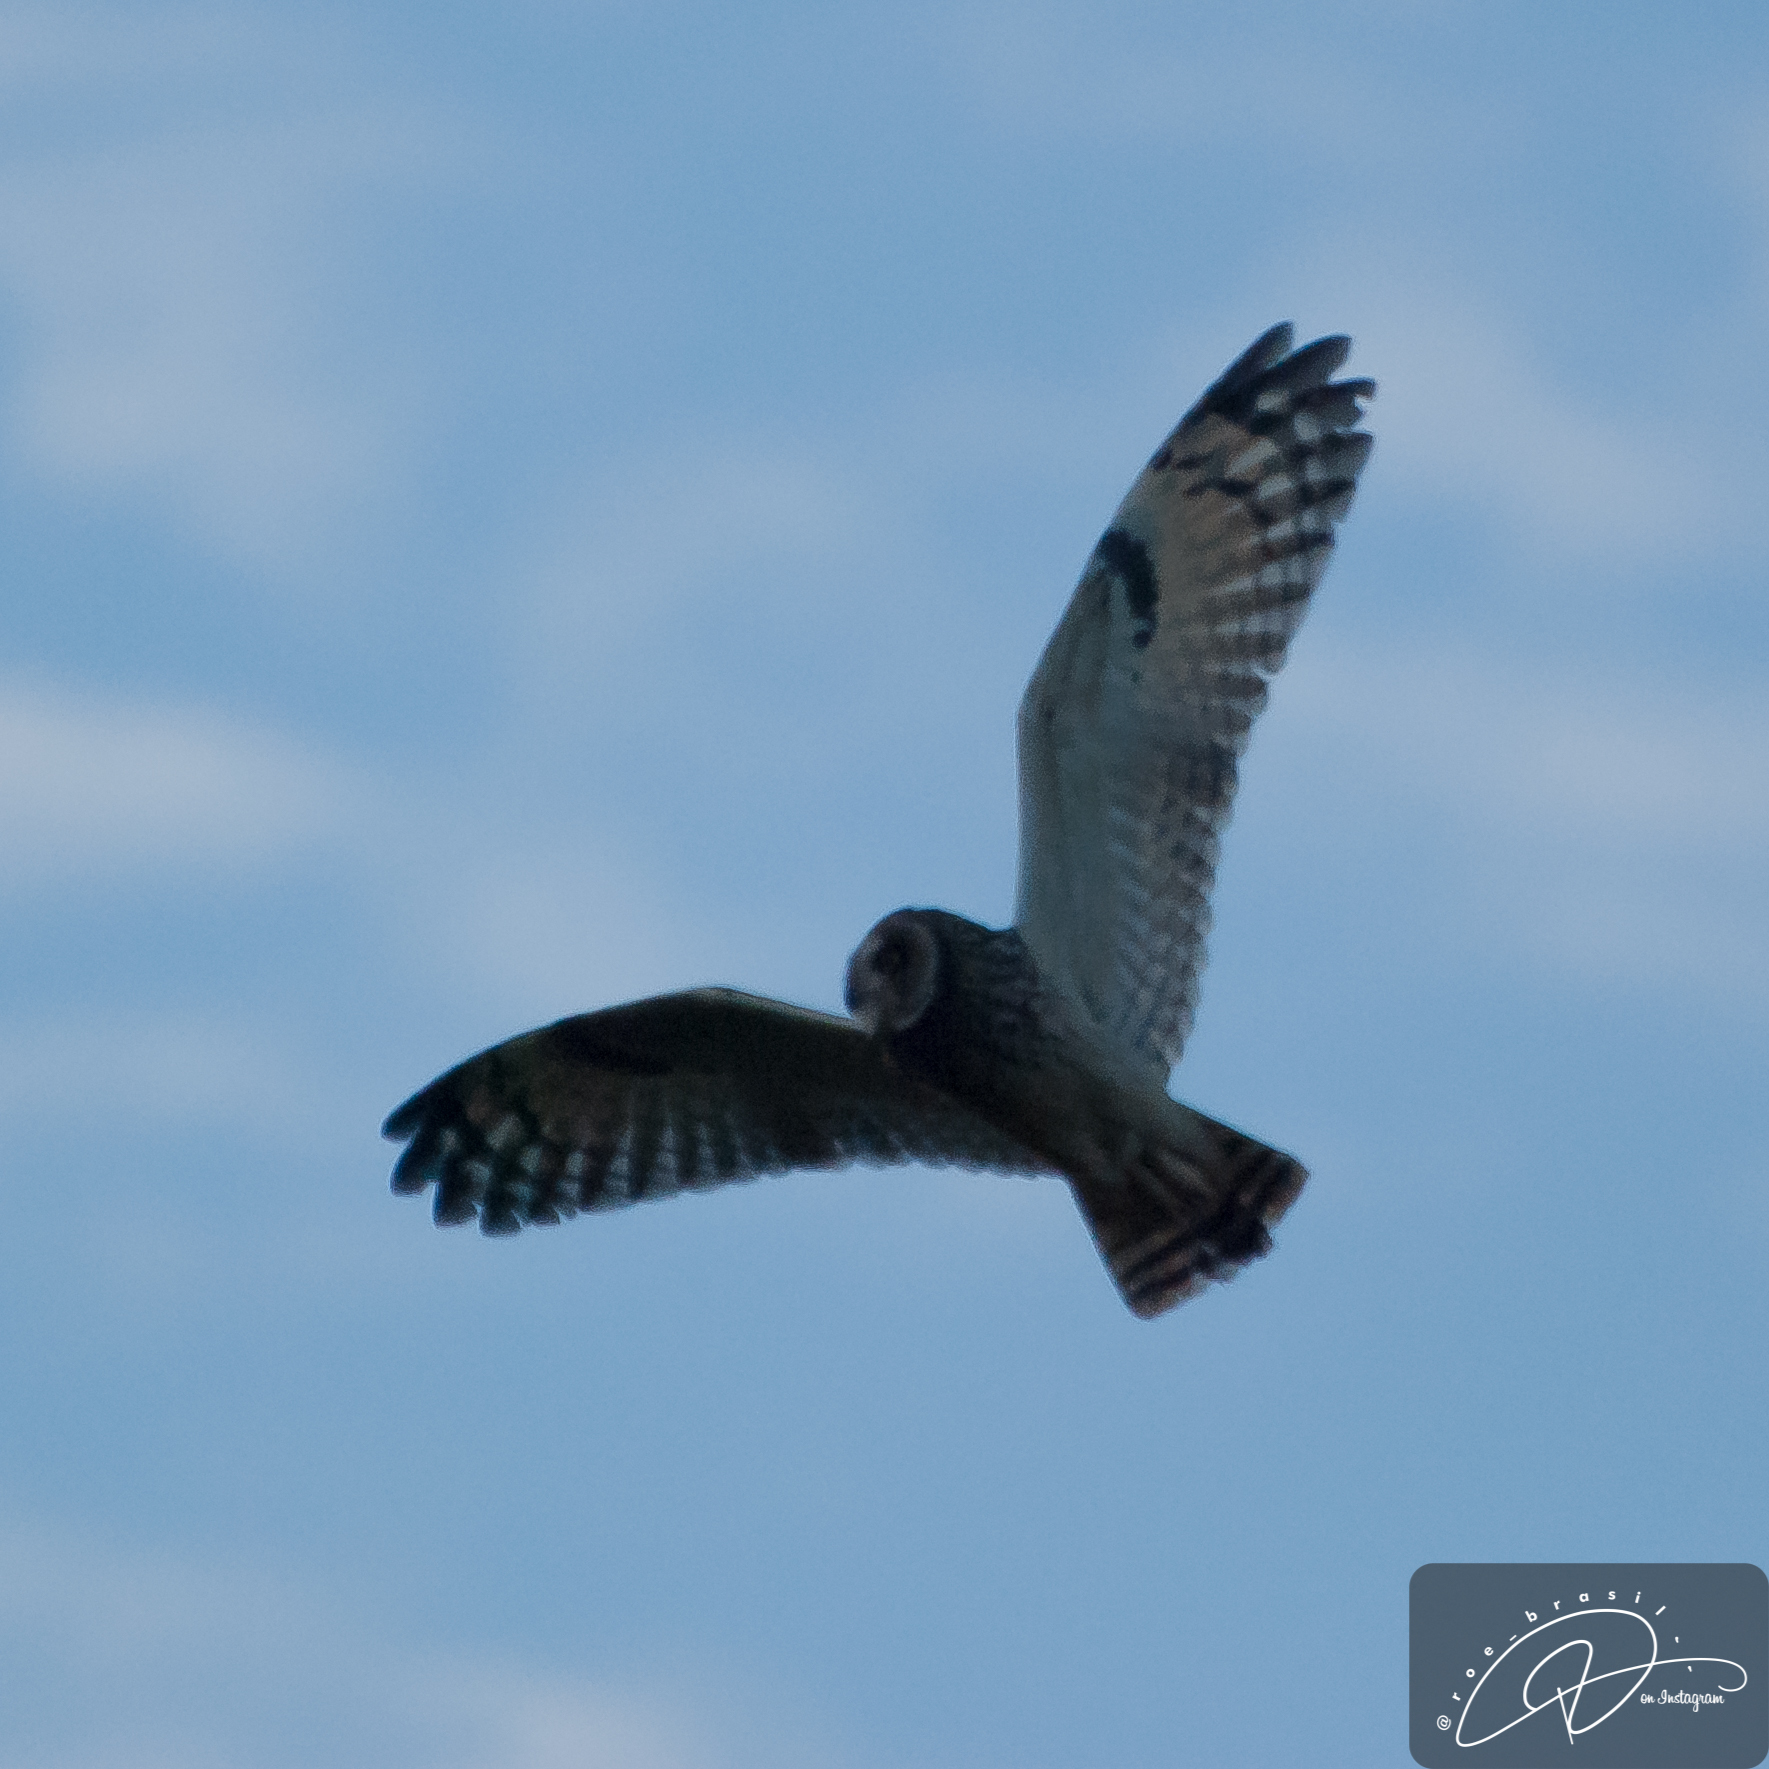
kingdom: Animalia
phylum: Chordata
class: Aves
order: Strigiformes
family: Strigidae
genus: Asio
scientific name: Asio flammeus
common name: Short-eared owl
